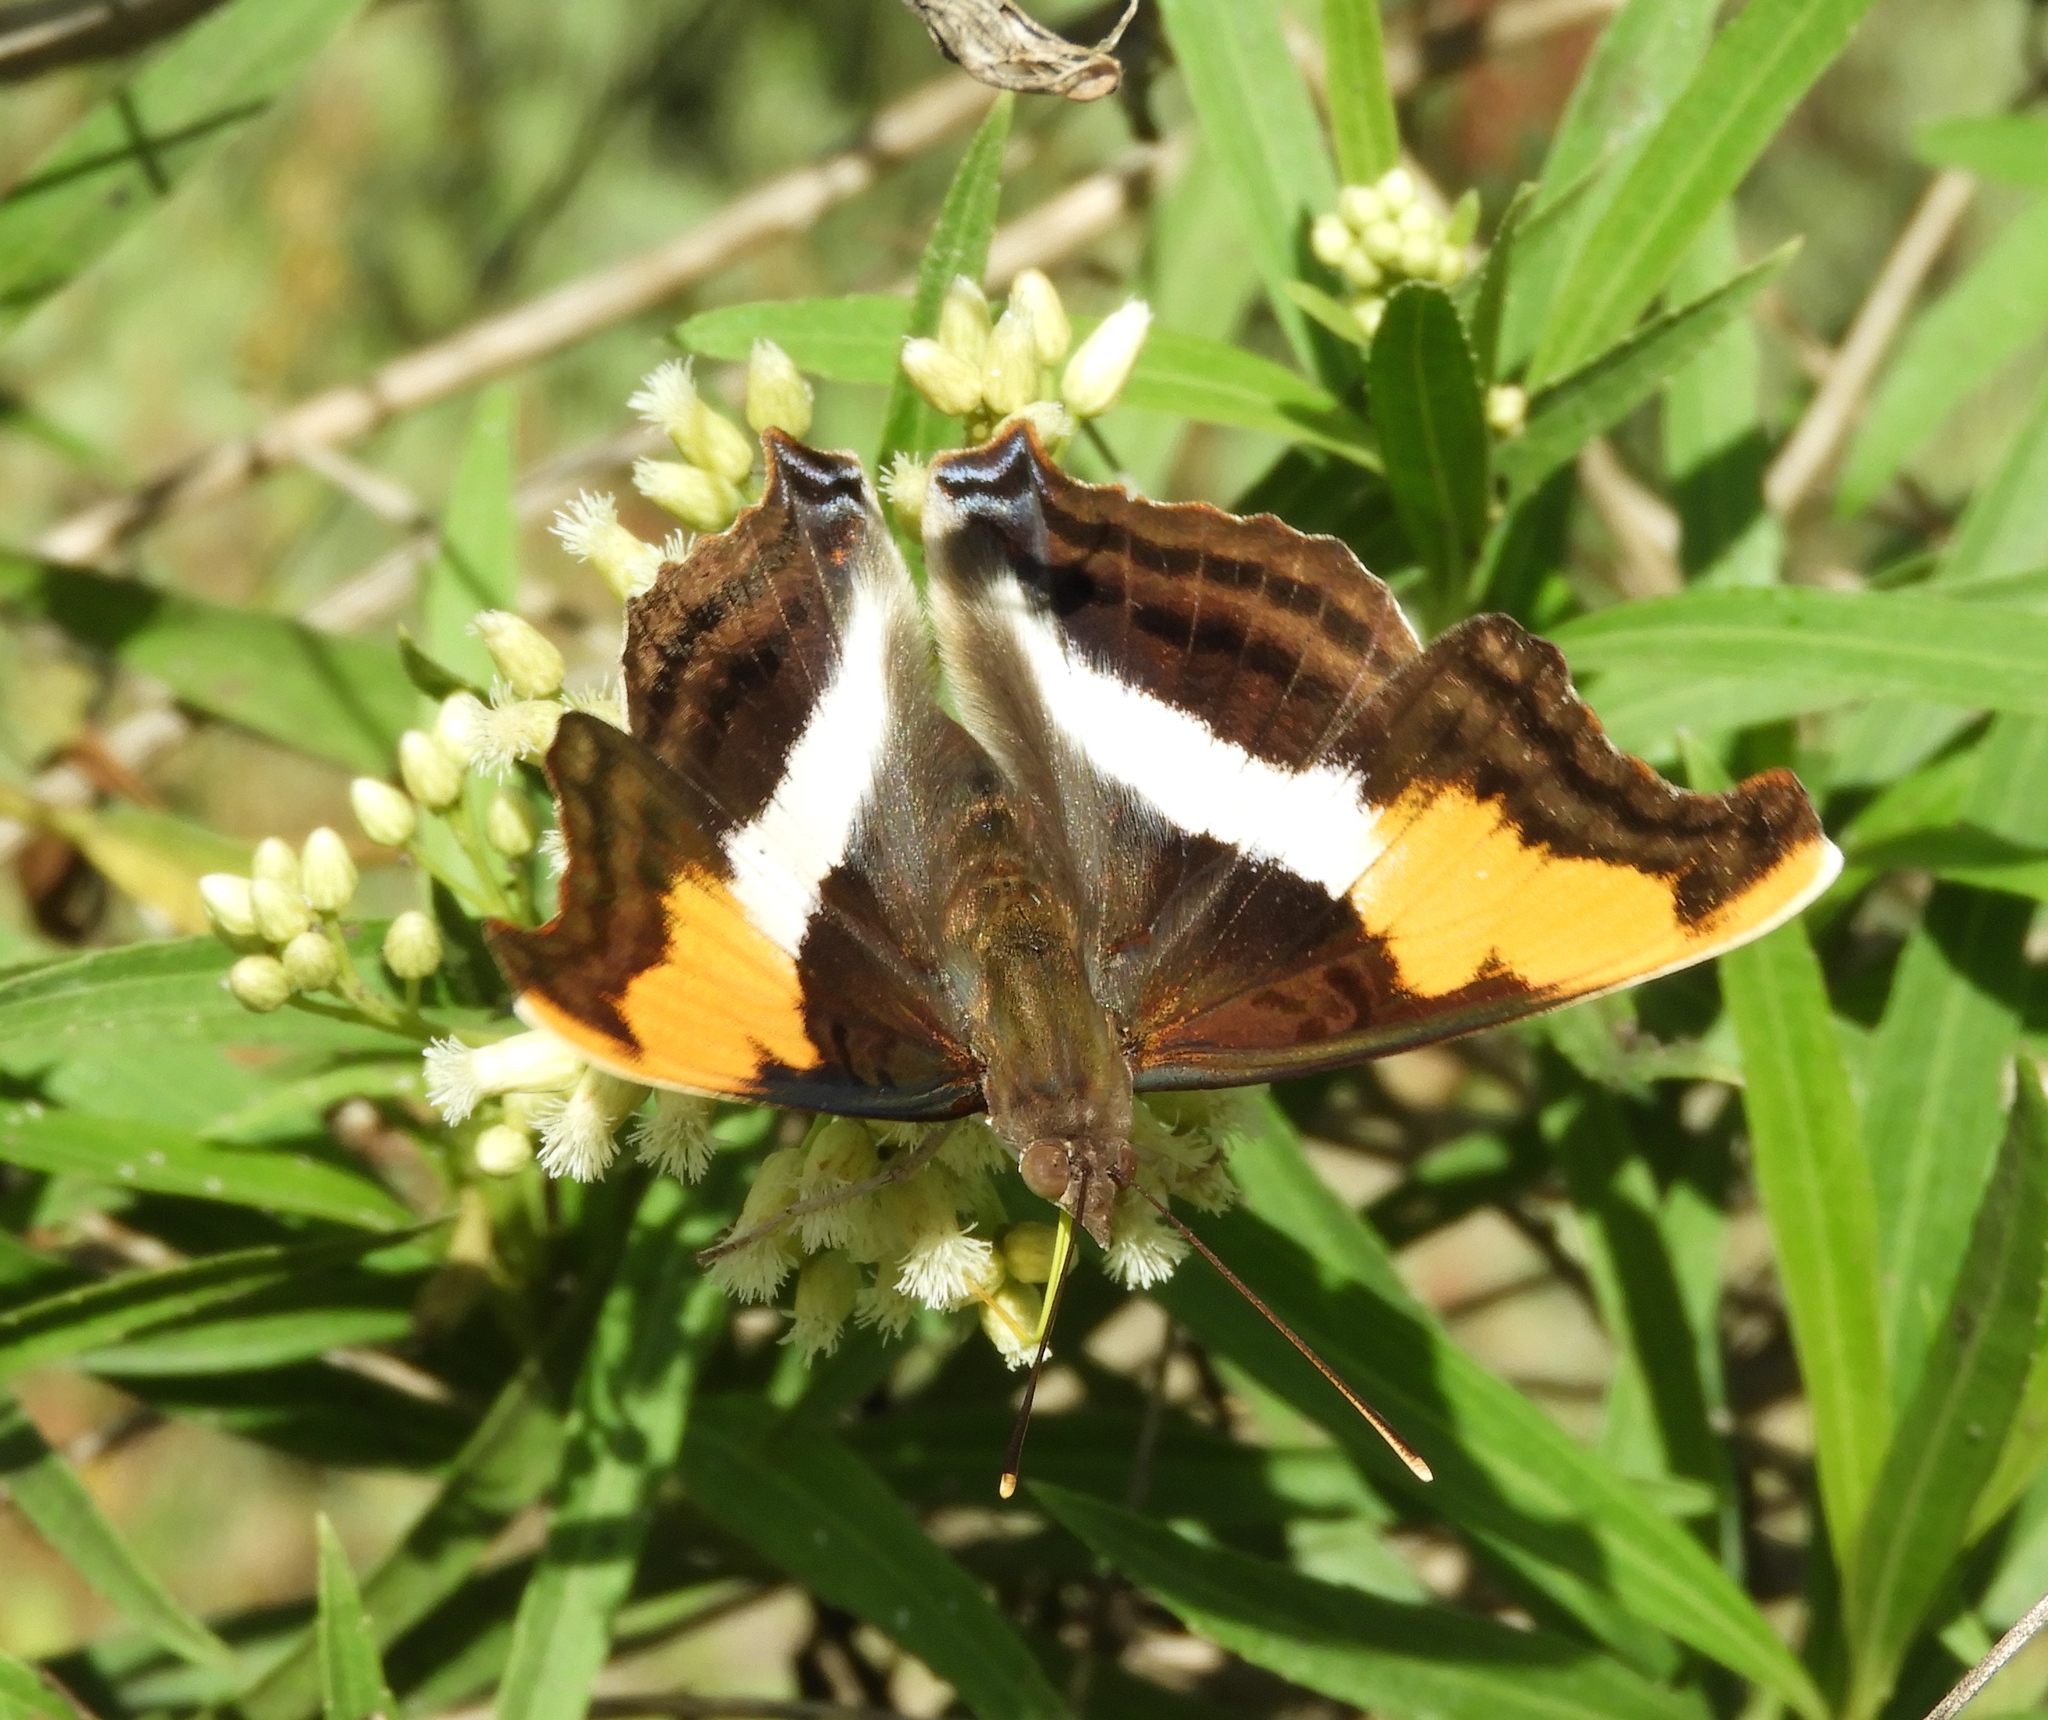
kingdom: Animalia
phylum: Arthropoda
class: Insecta
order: Lepidoptera
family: Nymphalidae
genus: Doxocopa
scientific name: Doxocopa laure
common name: Silver emperor
